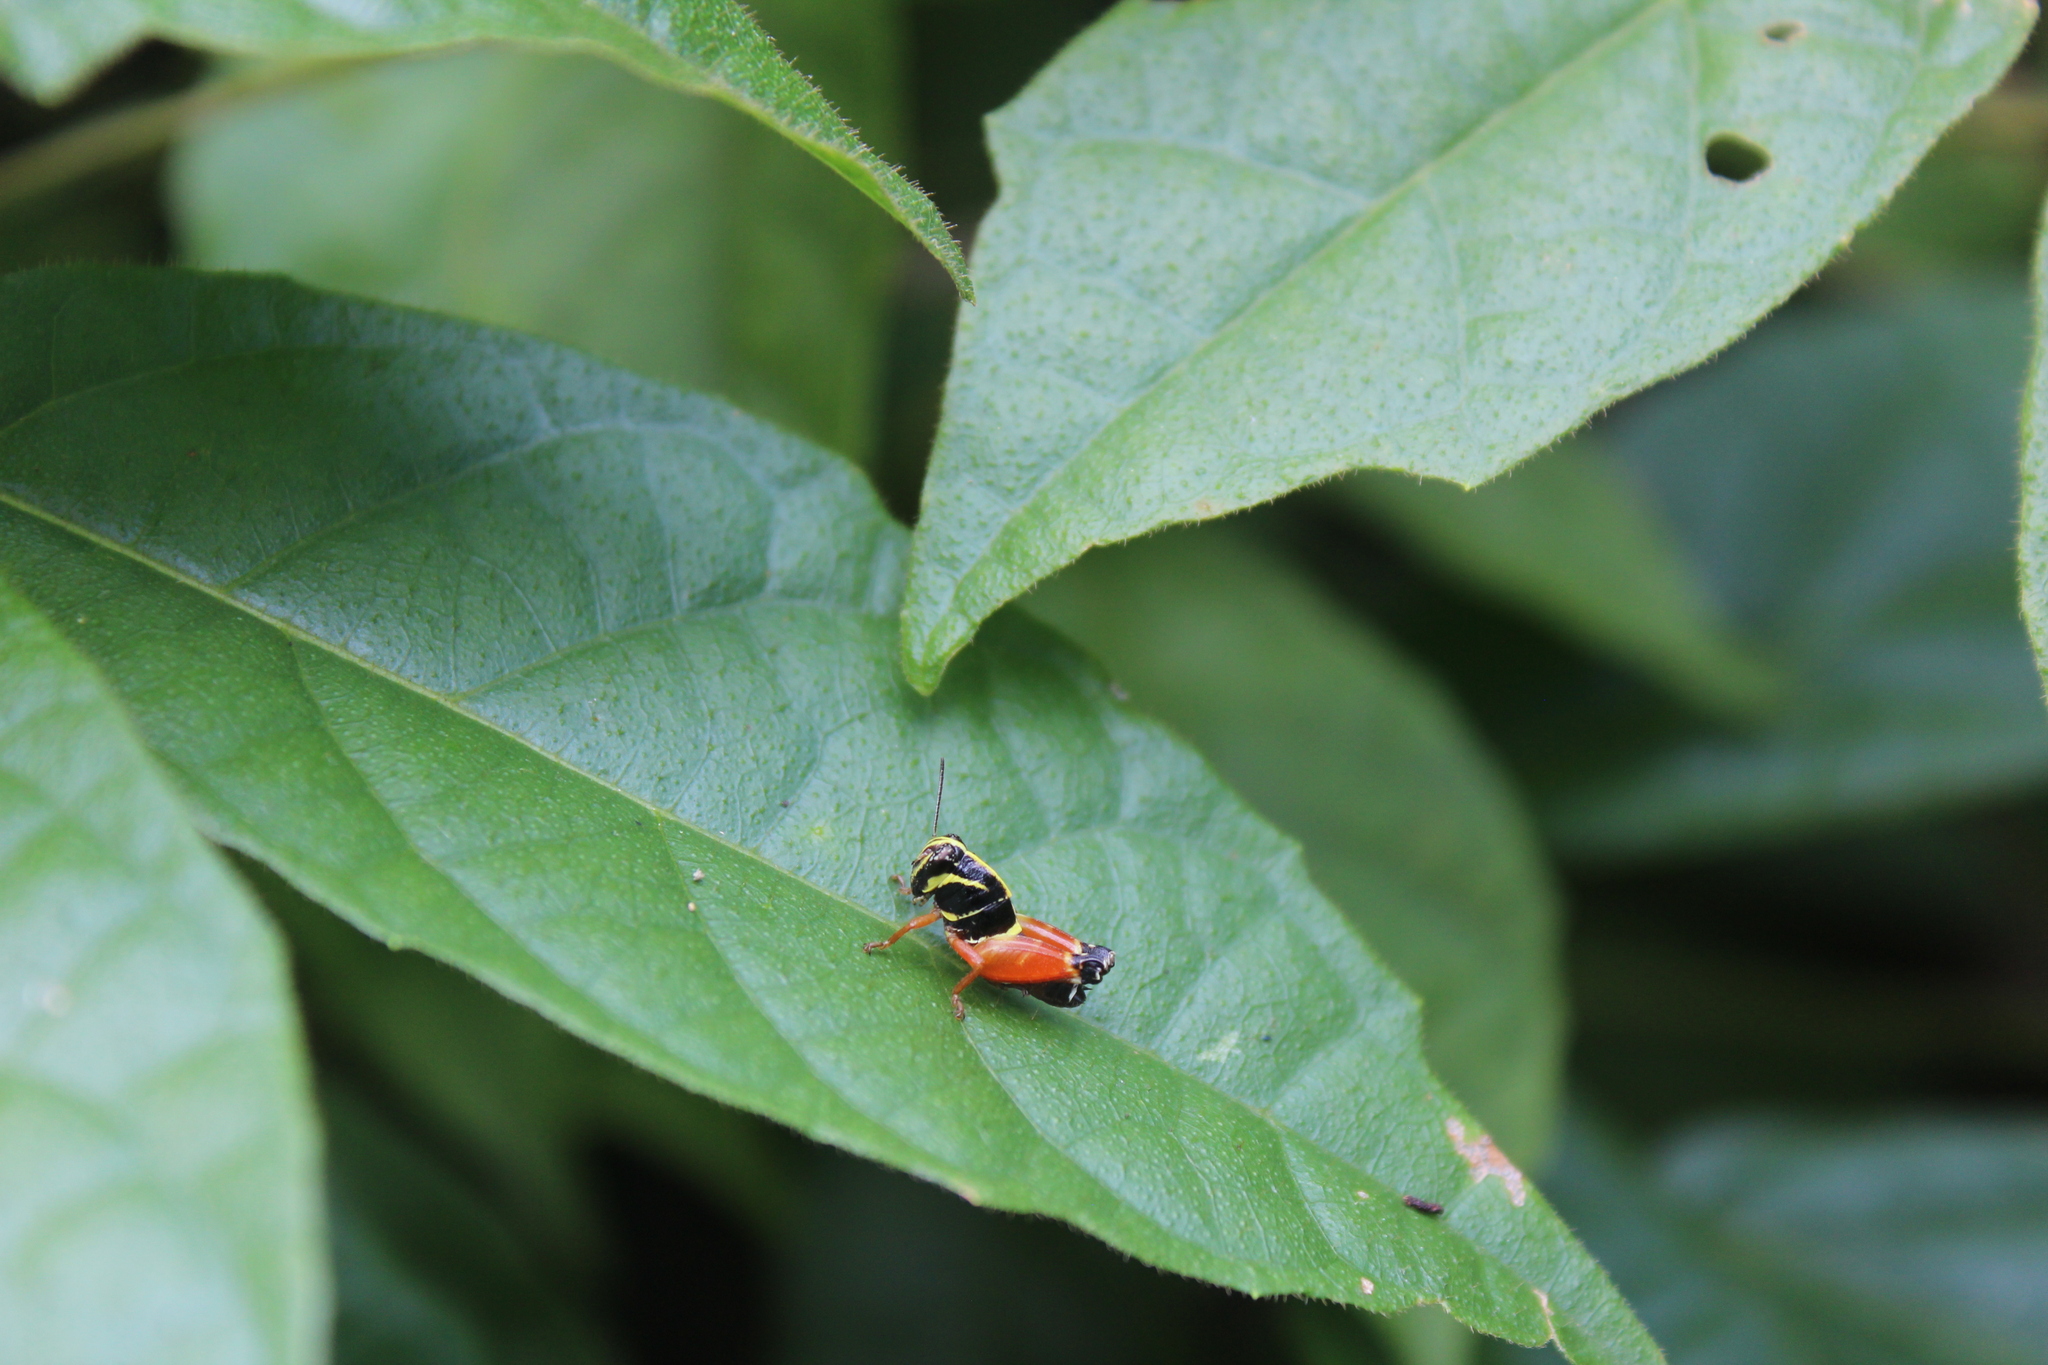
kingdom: Animalia
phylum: Arthropoda
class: Insecta
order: Orthoptera
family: Acrididae
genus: Aidemona
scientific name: Aidemona azteca
